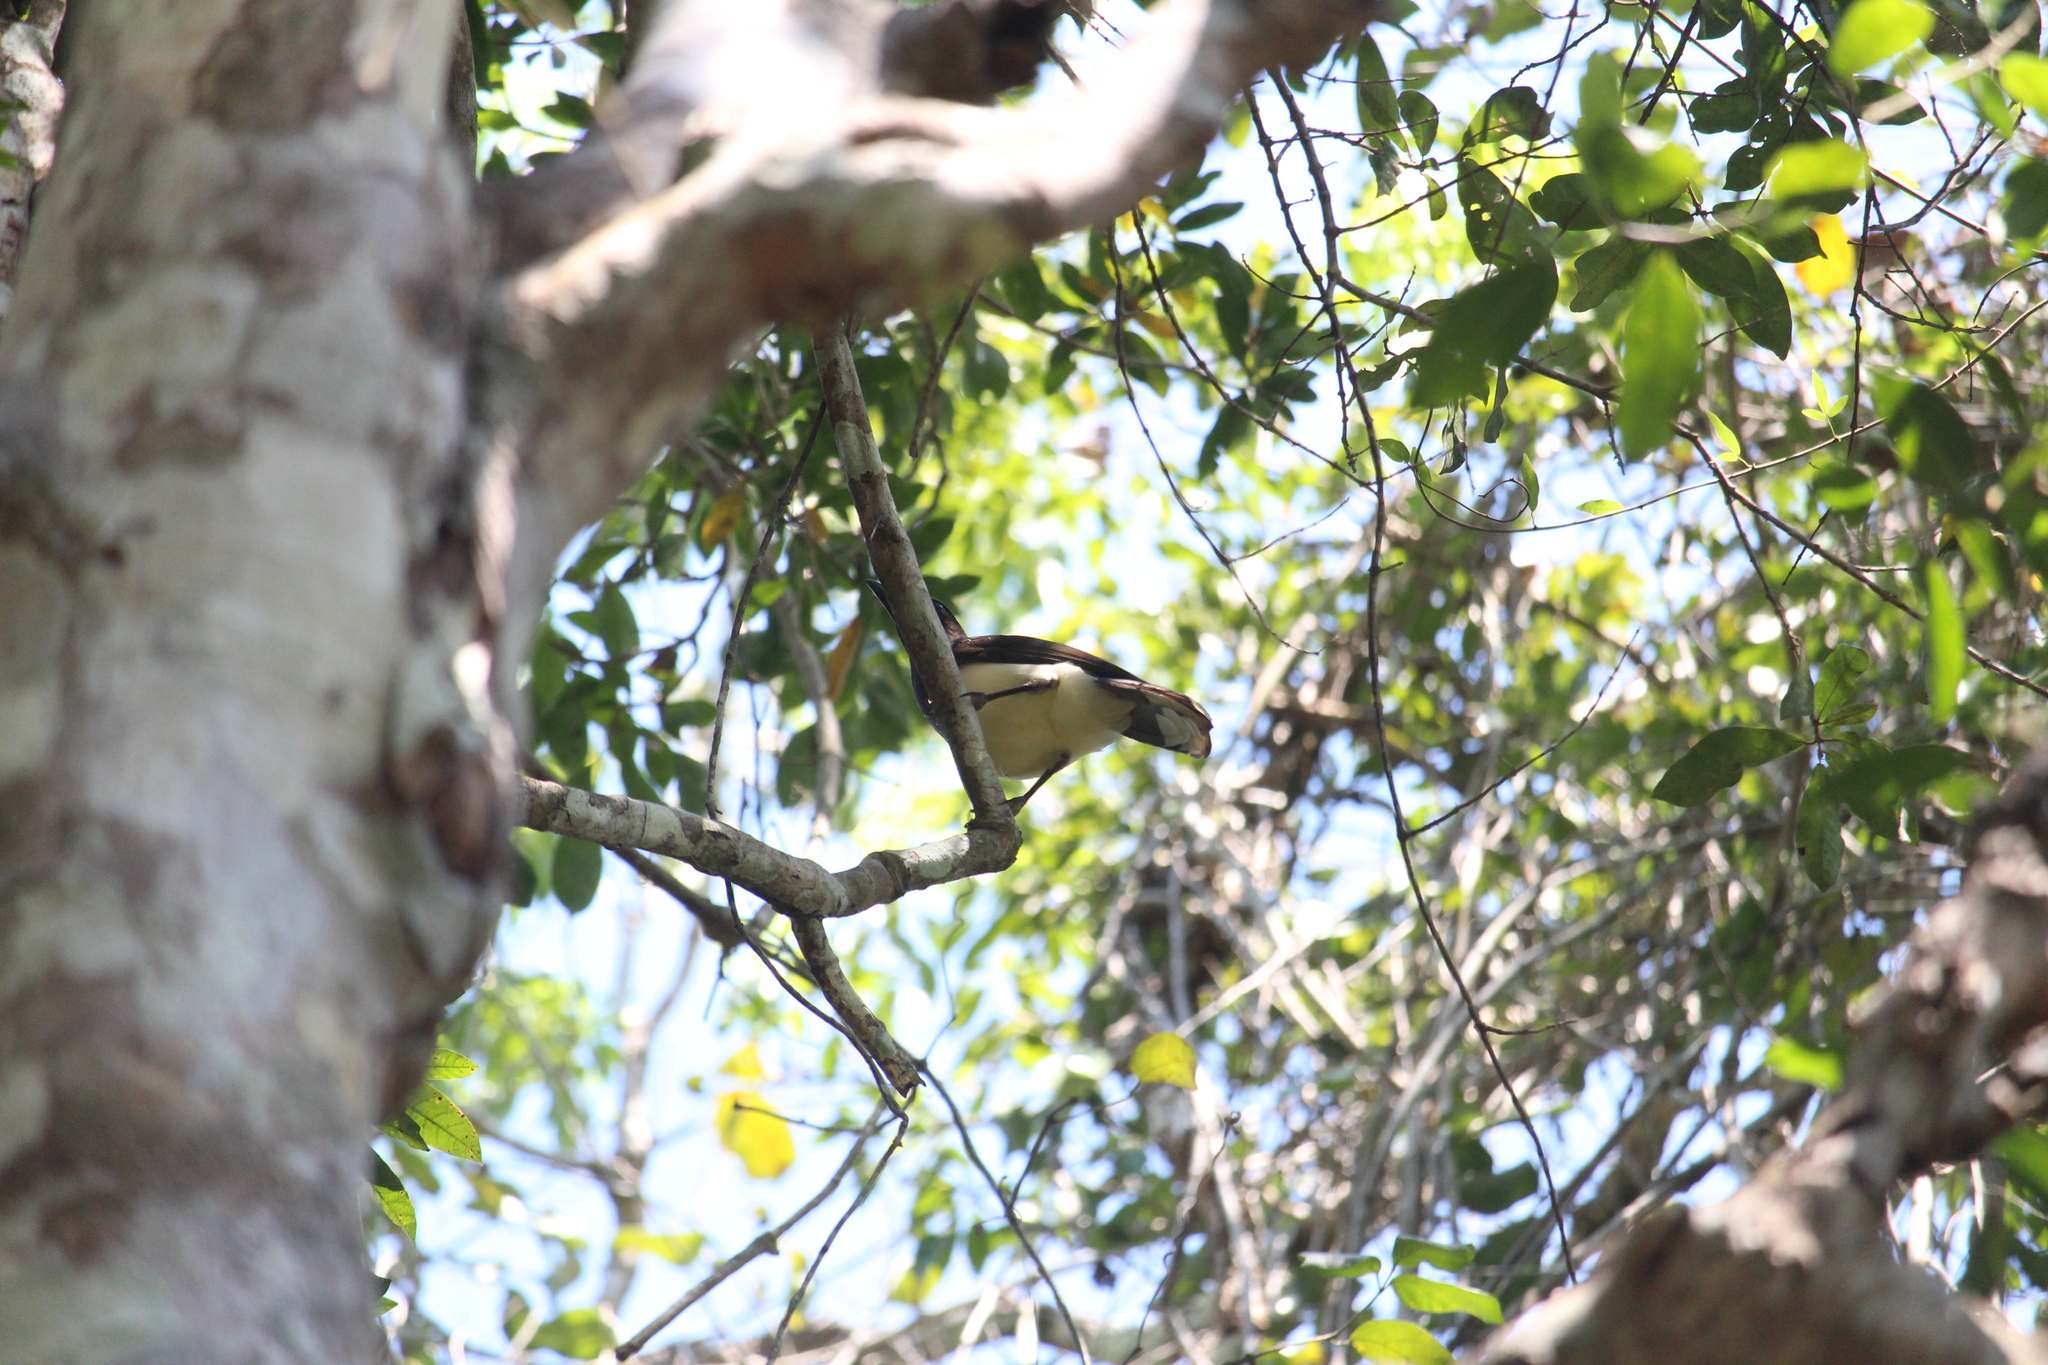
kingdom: Animalia
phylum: Chordata
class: Aves
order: Passeriformes
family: Corvidae
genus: Psilorhinus
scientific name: Psilorhinus morio
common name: Brown jay
